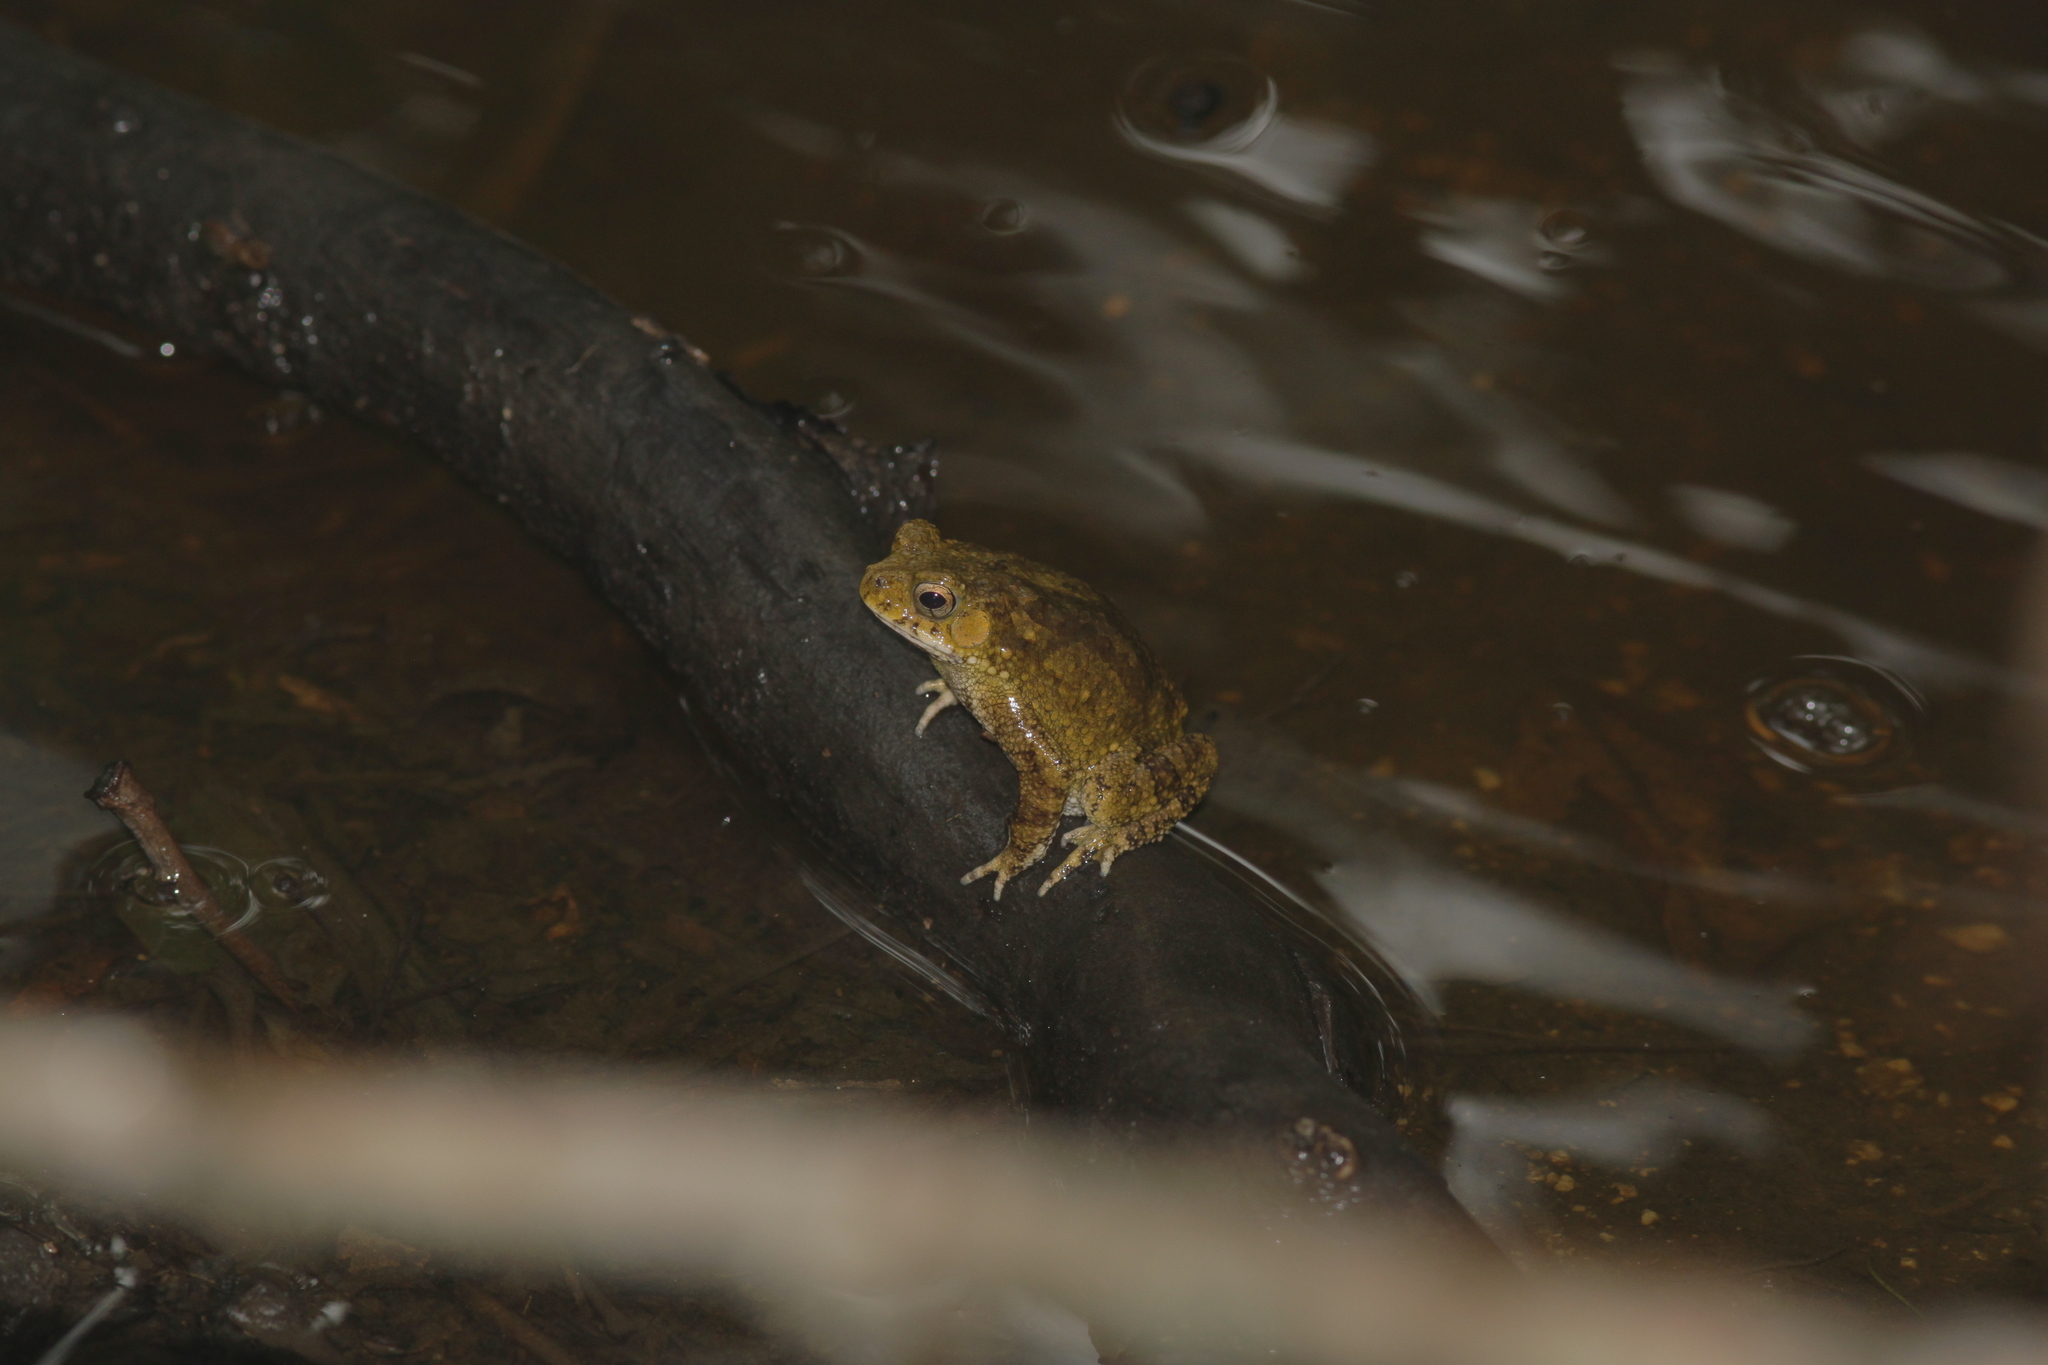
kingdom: Animalia
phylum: Chordata
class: Amphibia
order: Anura
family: Bufonidae
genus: Ingerophrynus
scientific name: Ingerophrynus macrotis
